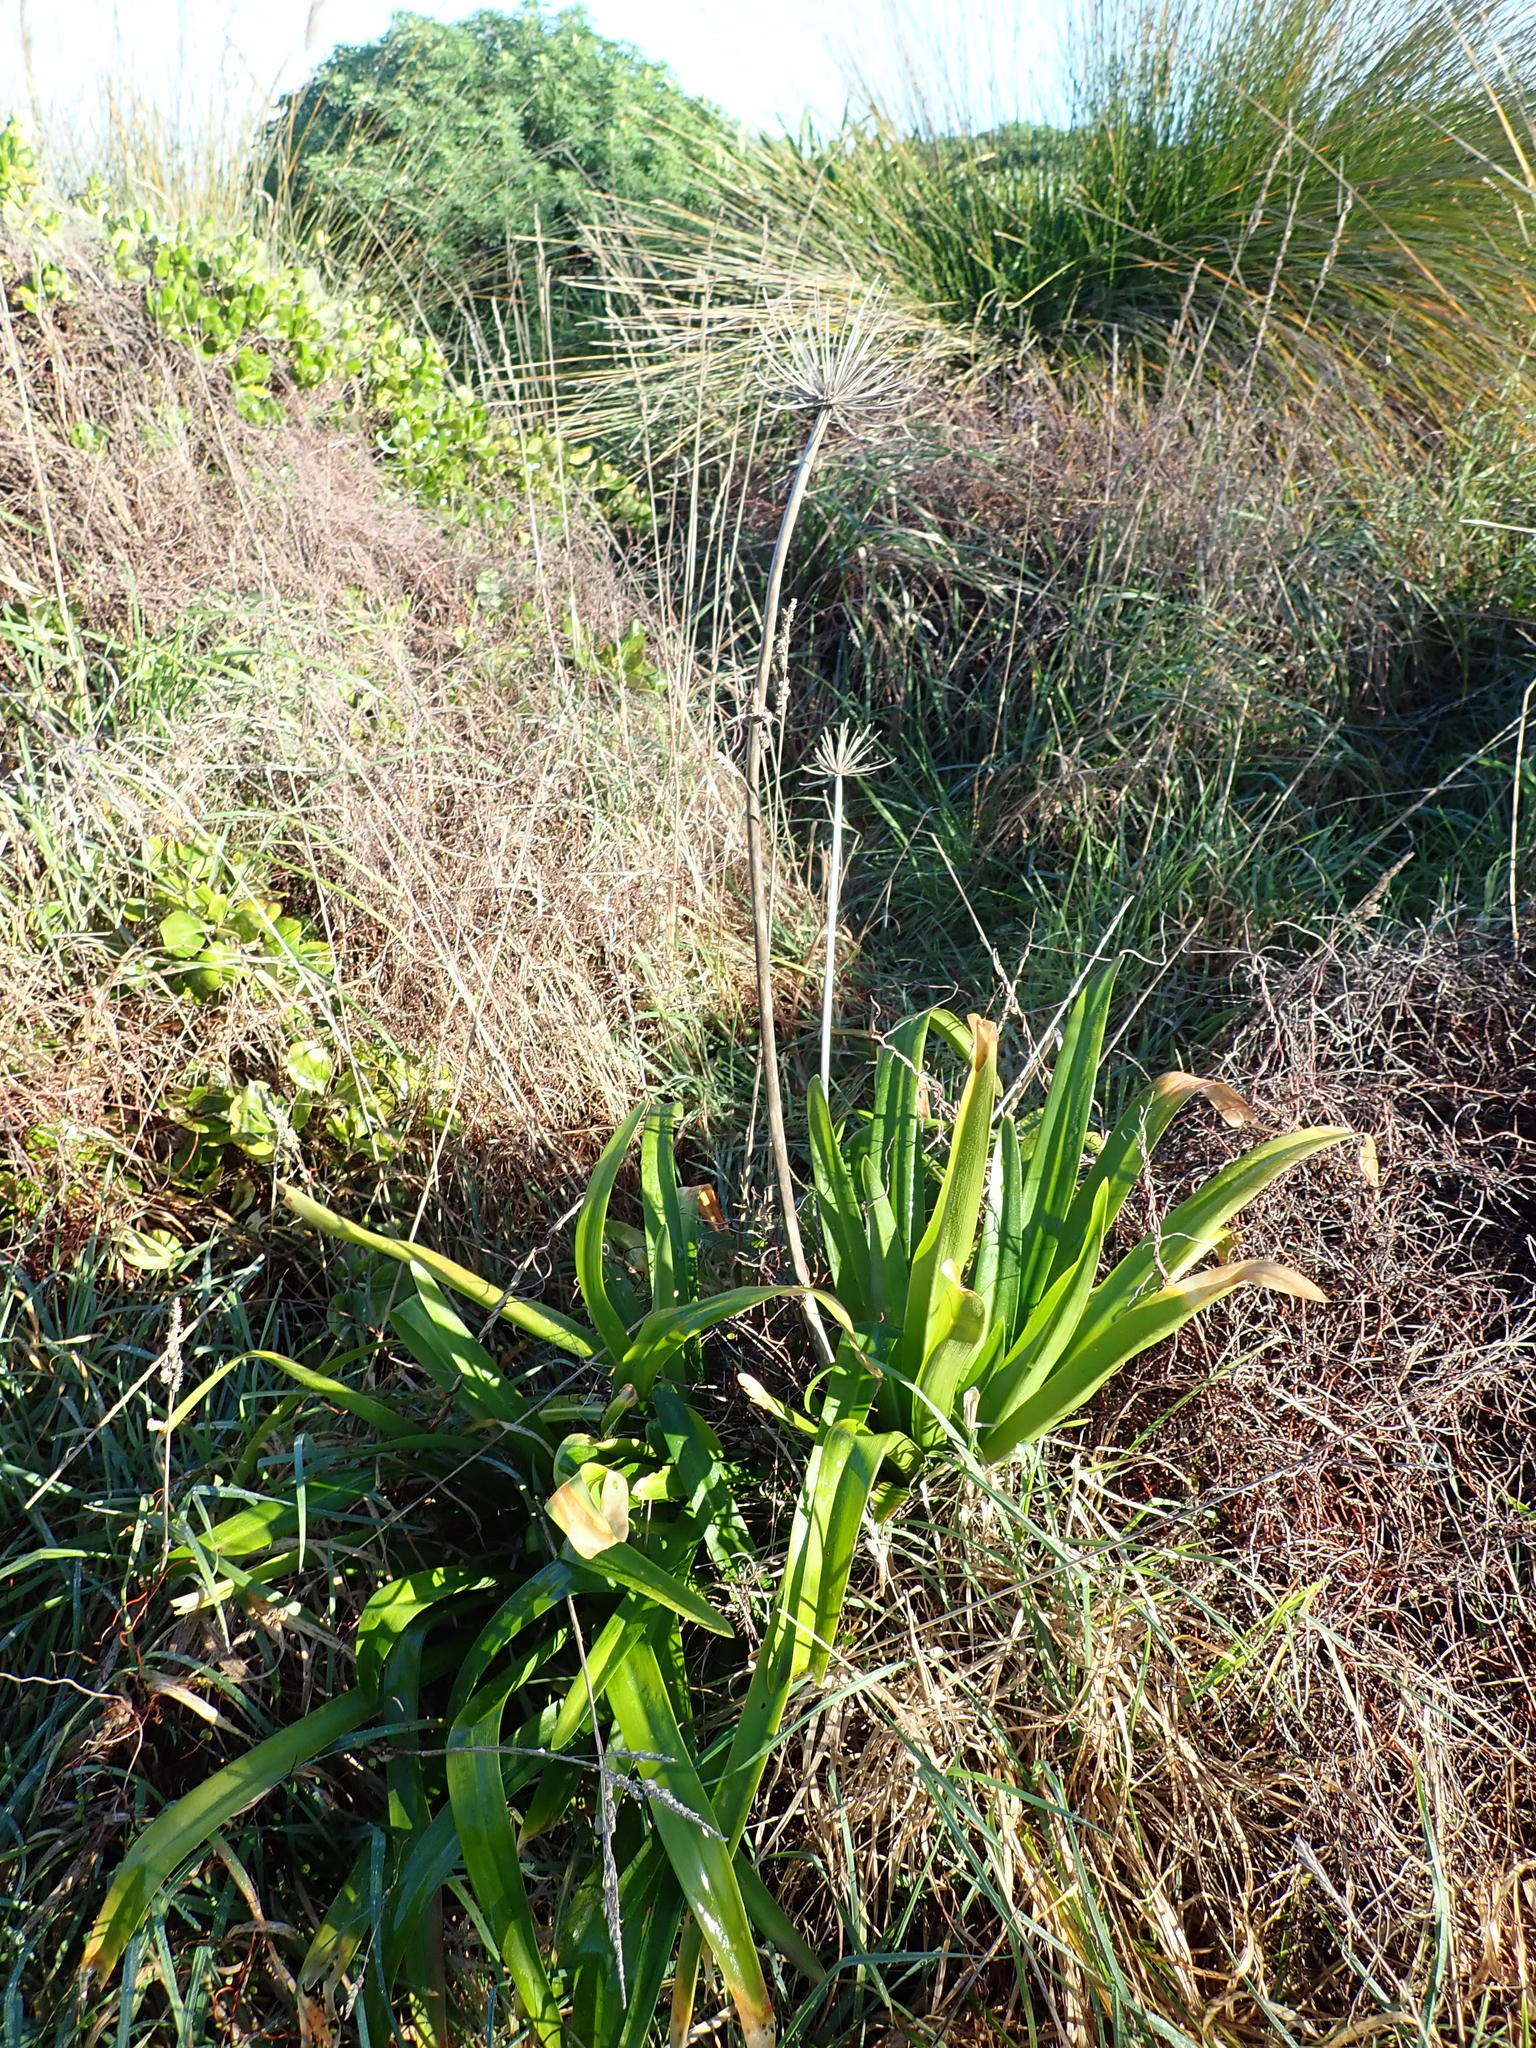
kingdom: Plantae
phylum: Tracheophyta
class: Liliopsida
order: Asparagales
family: Amaryllidaceae
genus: Agapanthus
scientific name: Agapanthus praecox
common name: African-lily
